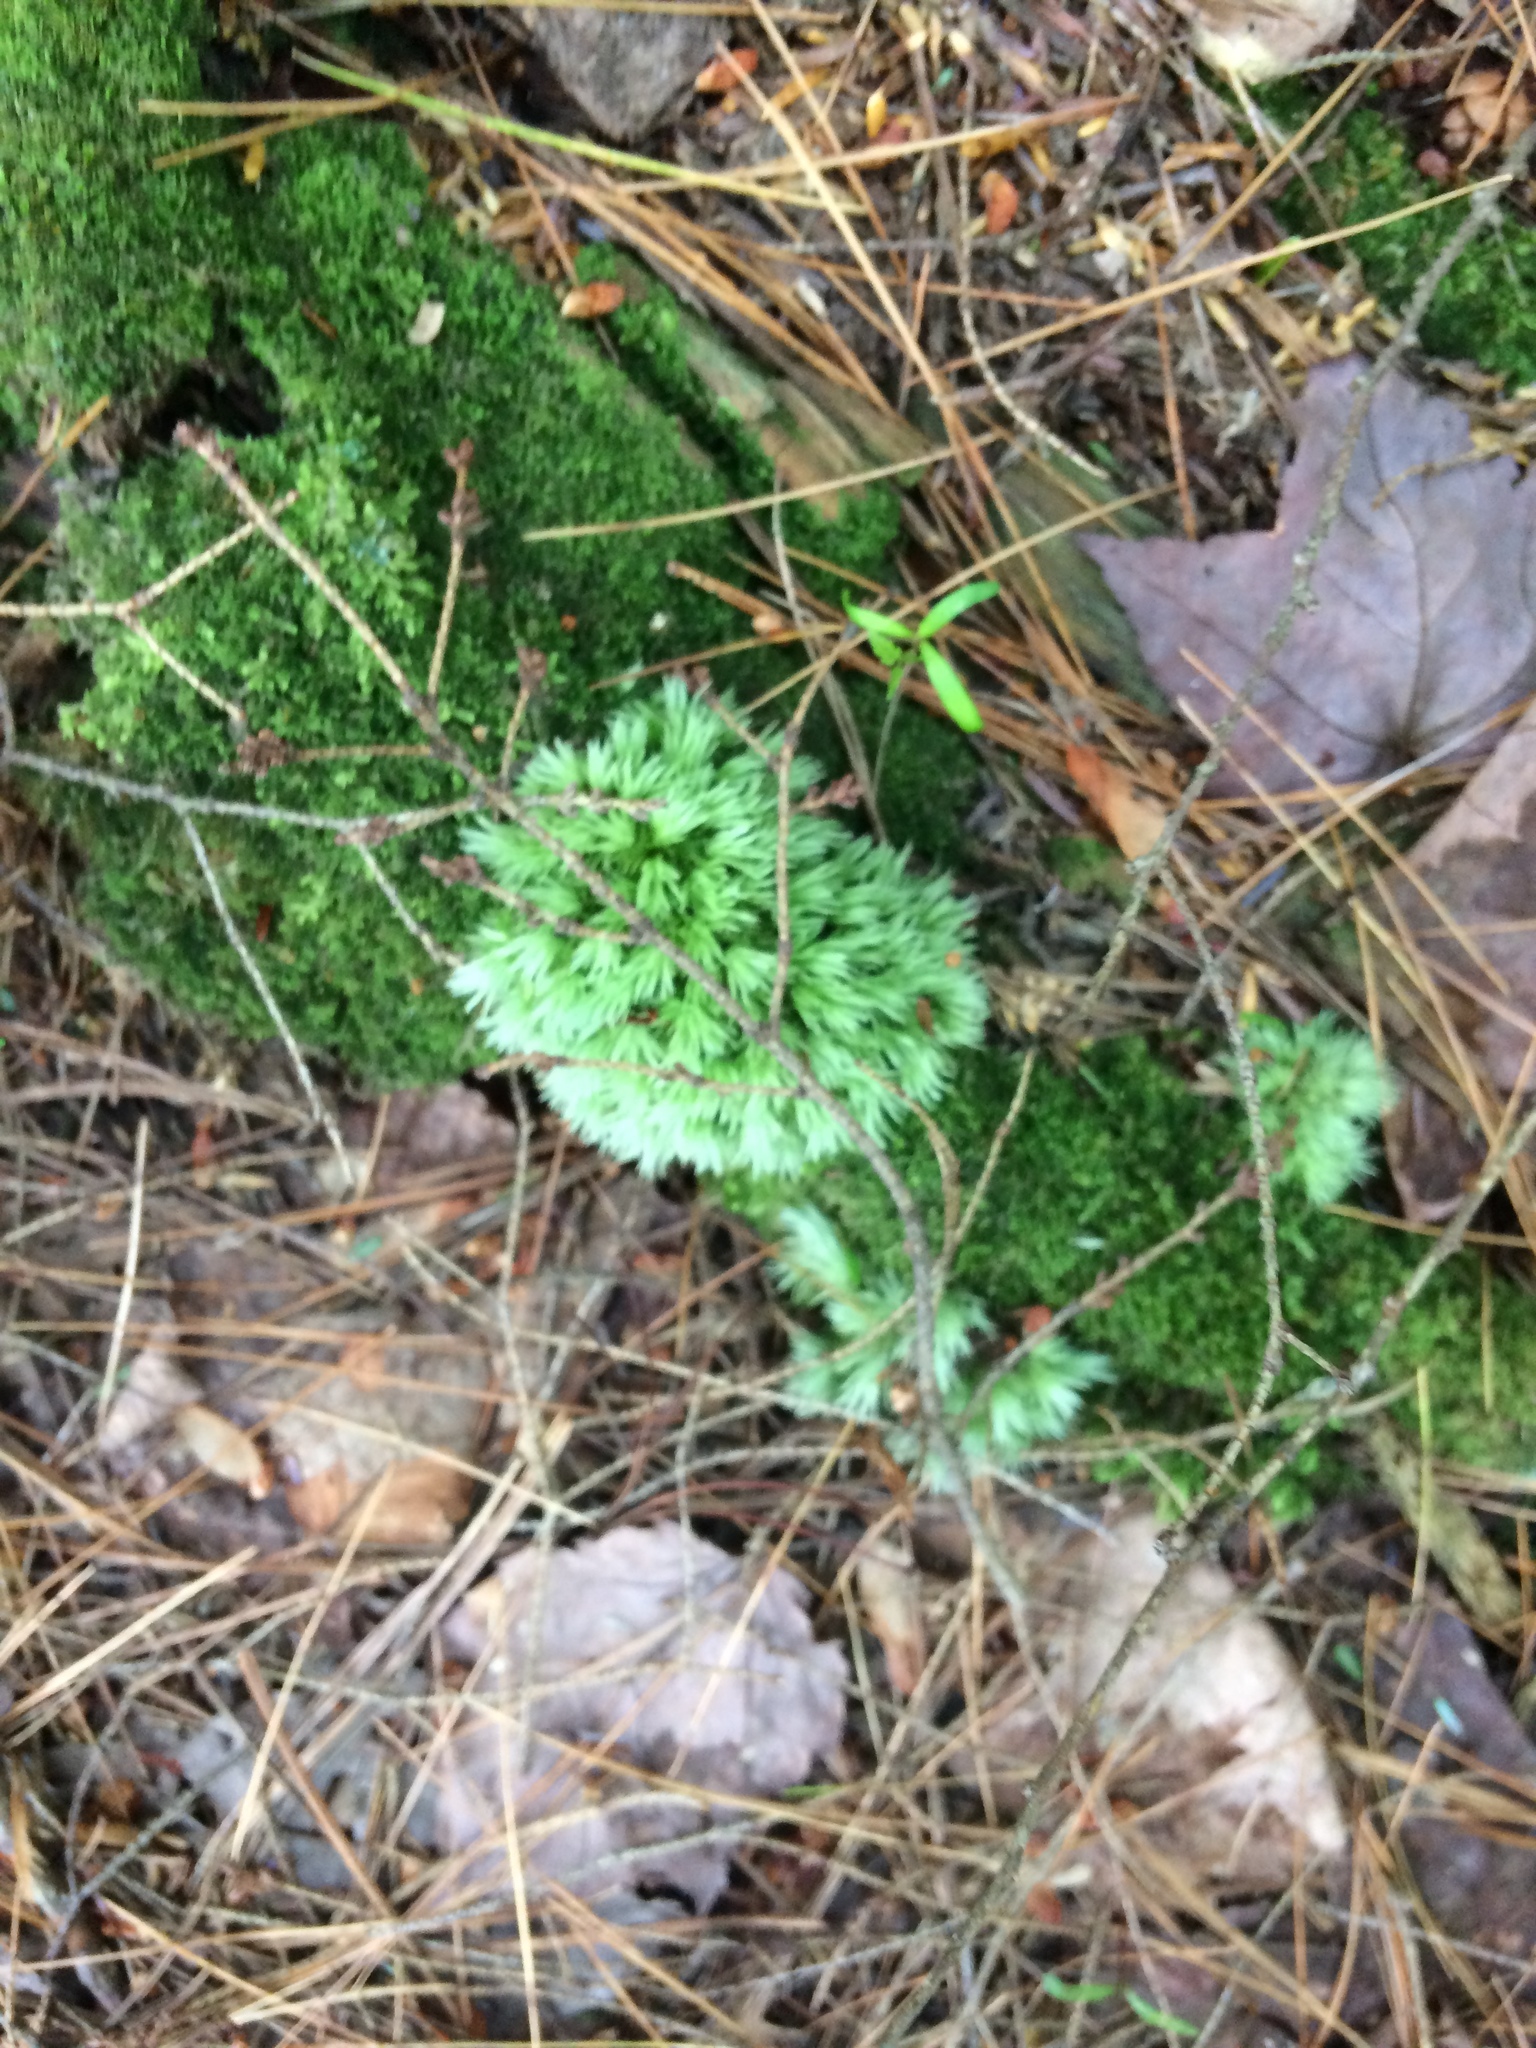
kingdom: Plantae
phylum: Bryophyta
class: Bryopsida
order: Dicranales
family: Leucobryaceae
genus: Leucobryum
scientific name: Leucobryum glaucum
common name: Large white-moss
